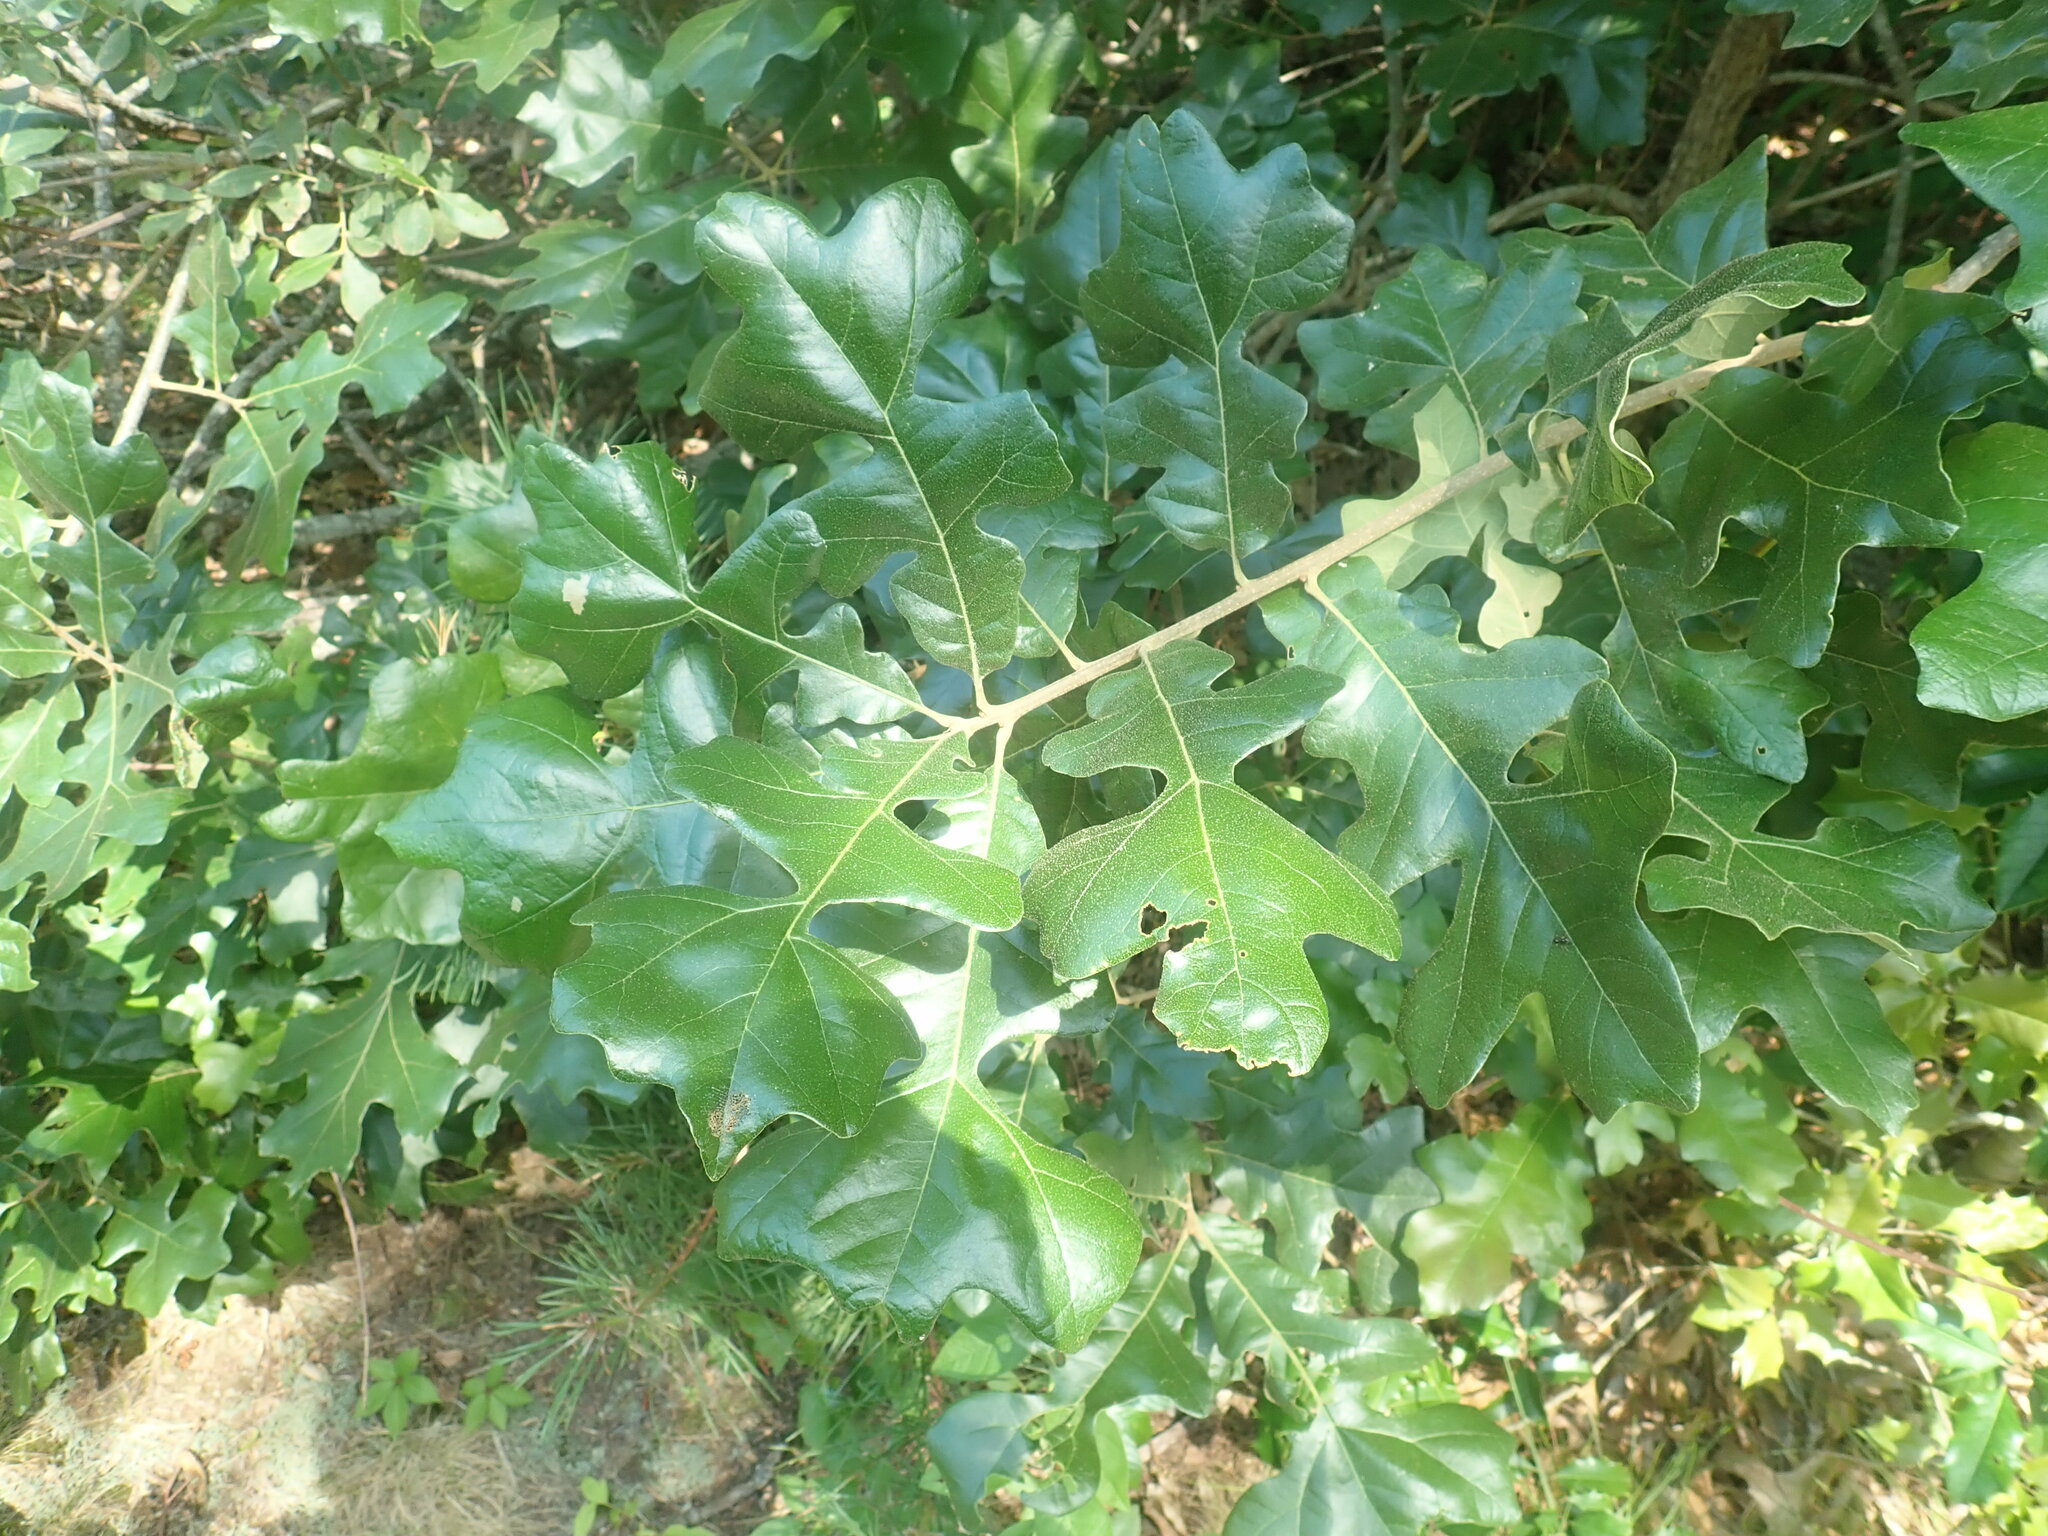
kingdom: Plantae
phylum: Tracheophyta
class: Magnoliopsida
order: Fagales
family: Fagaceae
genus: Quercus
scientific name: Quercus stellata
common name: Post oak
